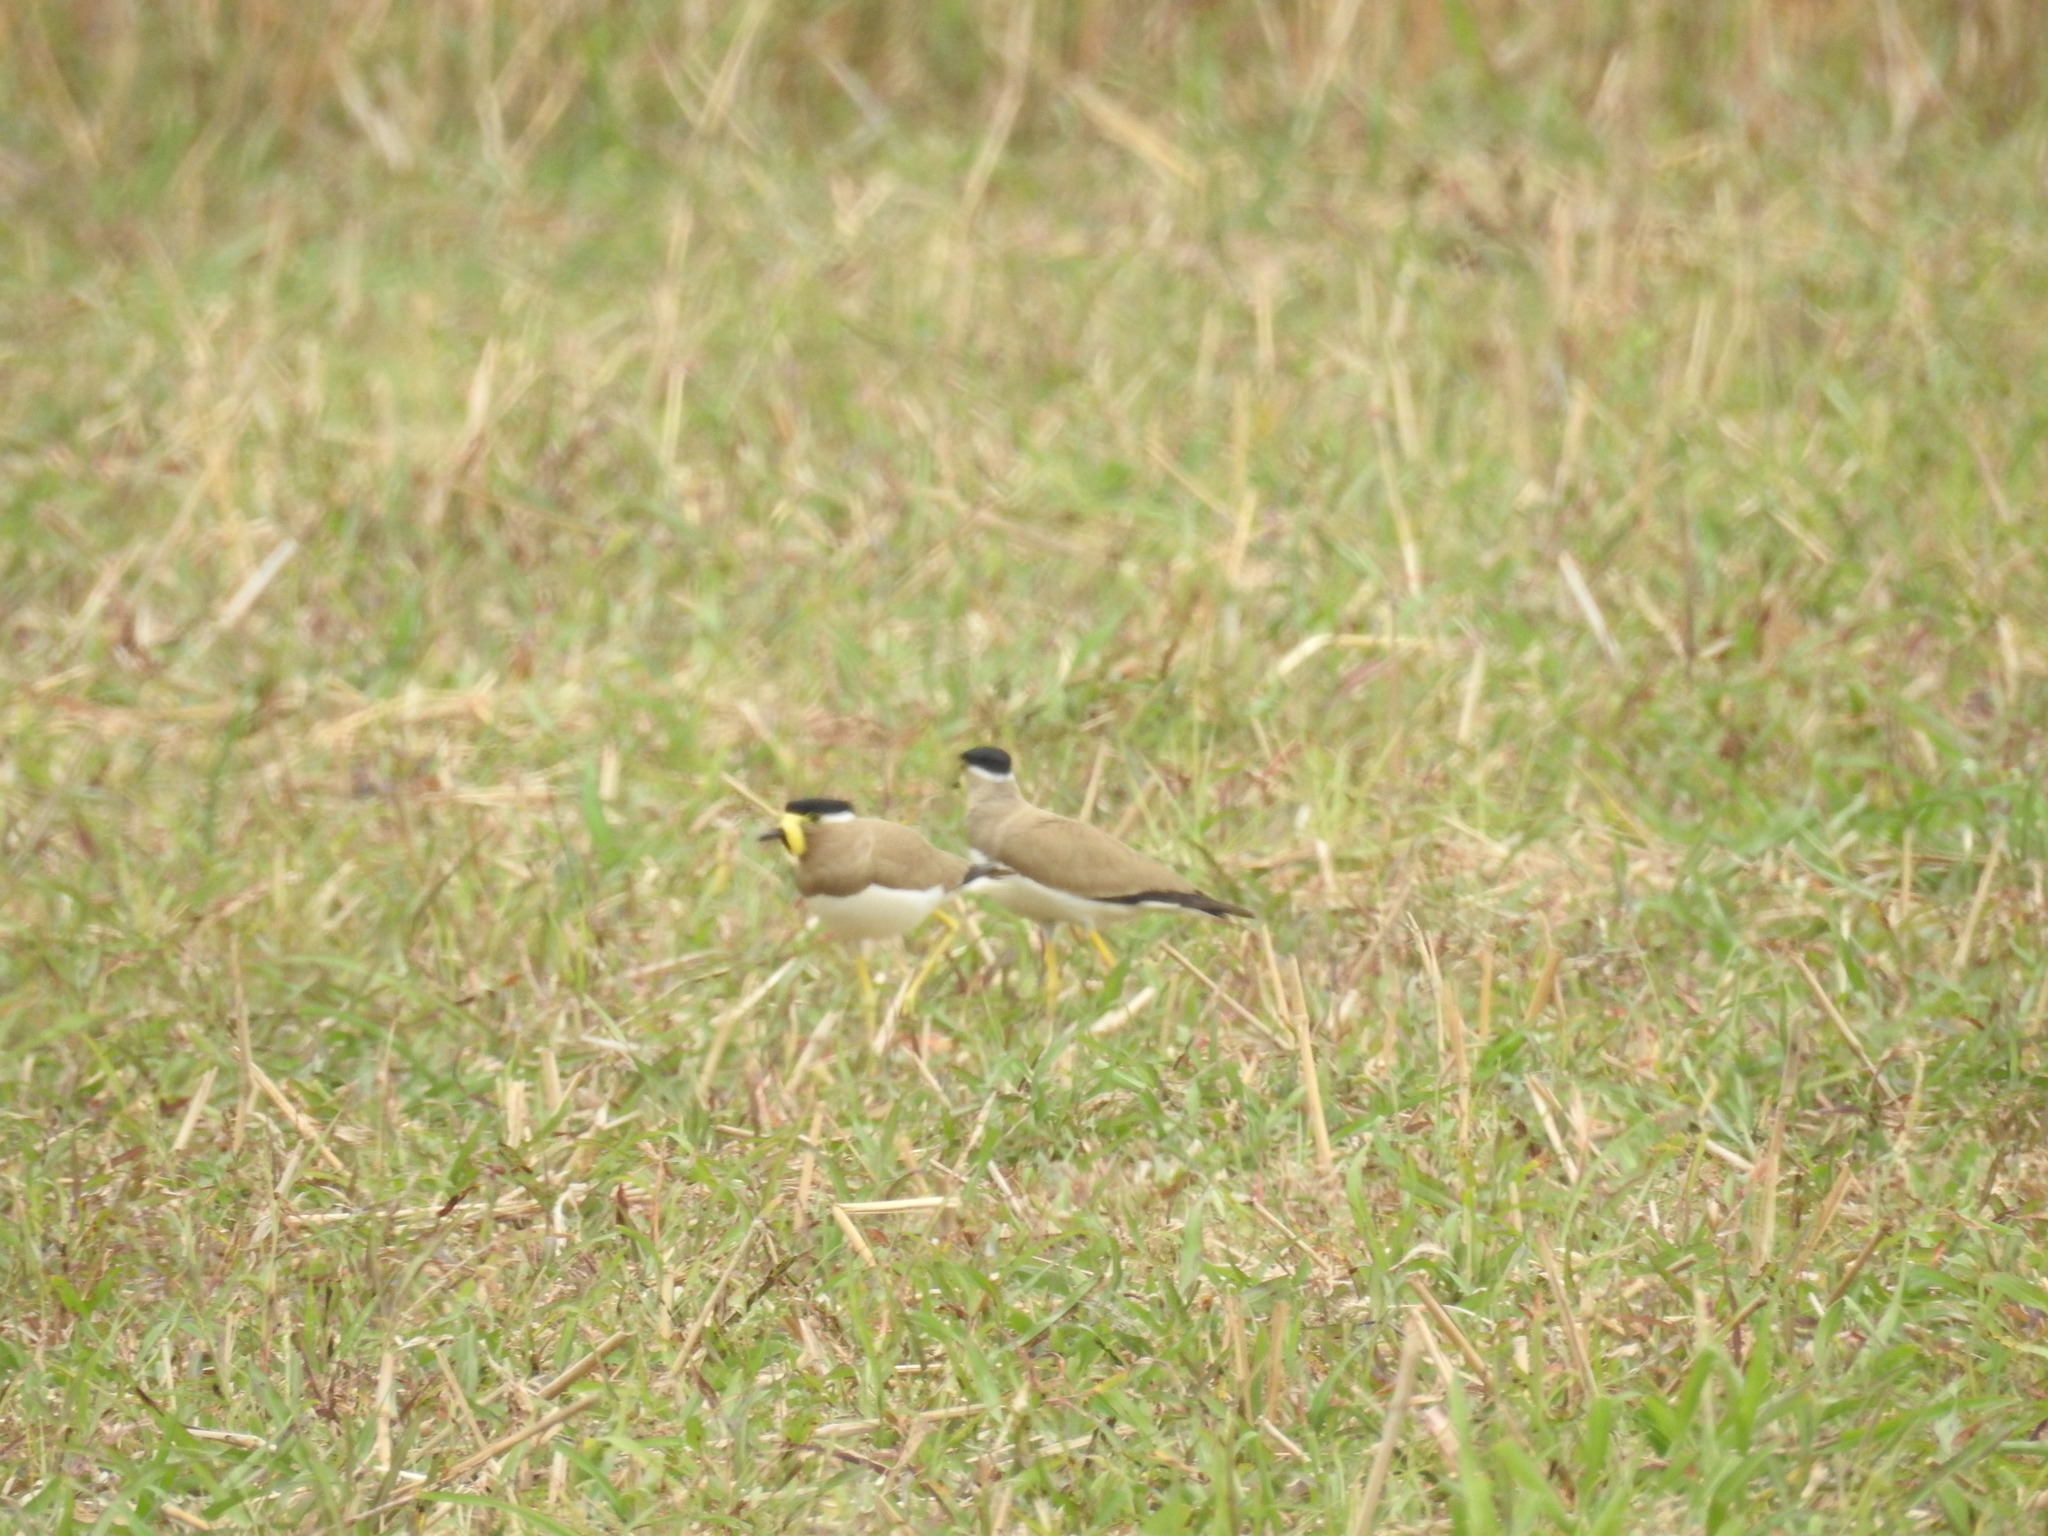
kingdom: Animalia
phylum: Chordata
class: Aves
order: Charadriiformes
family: Charadriidae
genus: Vanellus
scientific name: Vanellus malabaricus
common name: Yellow-wattled lapwing
